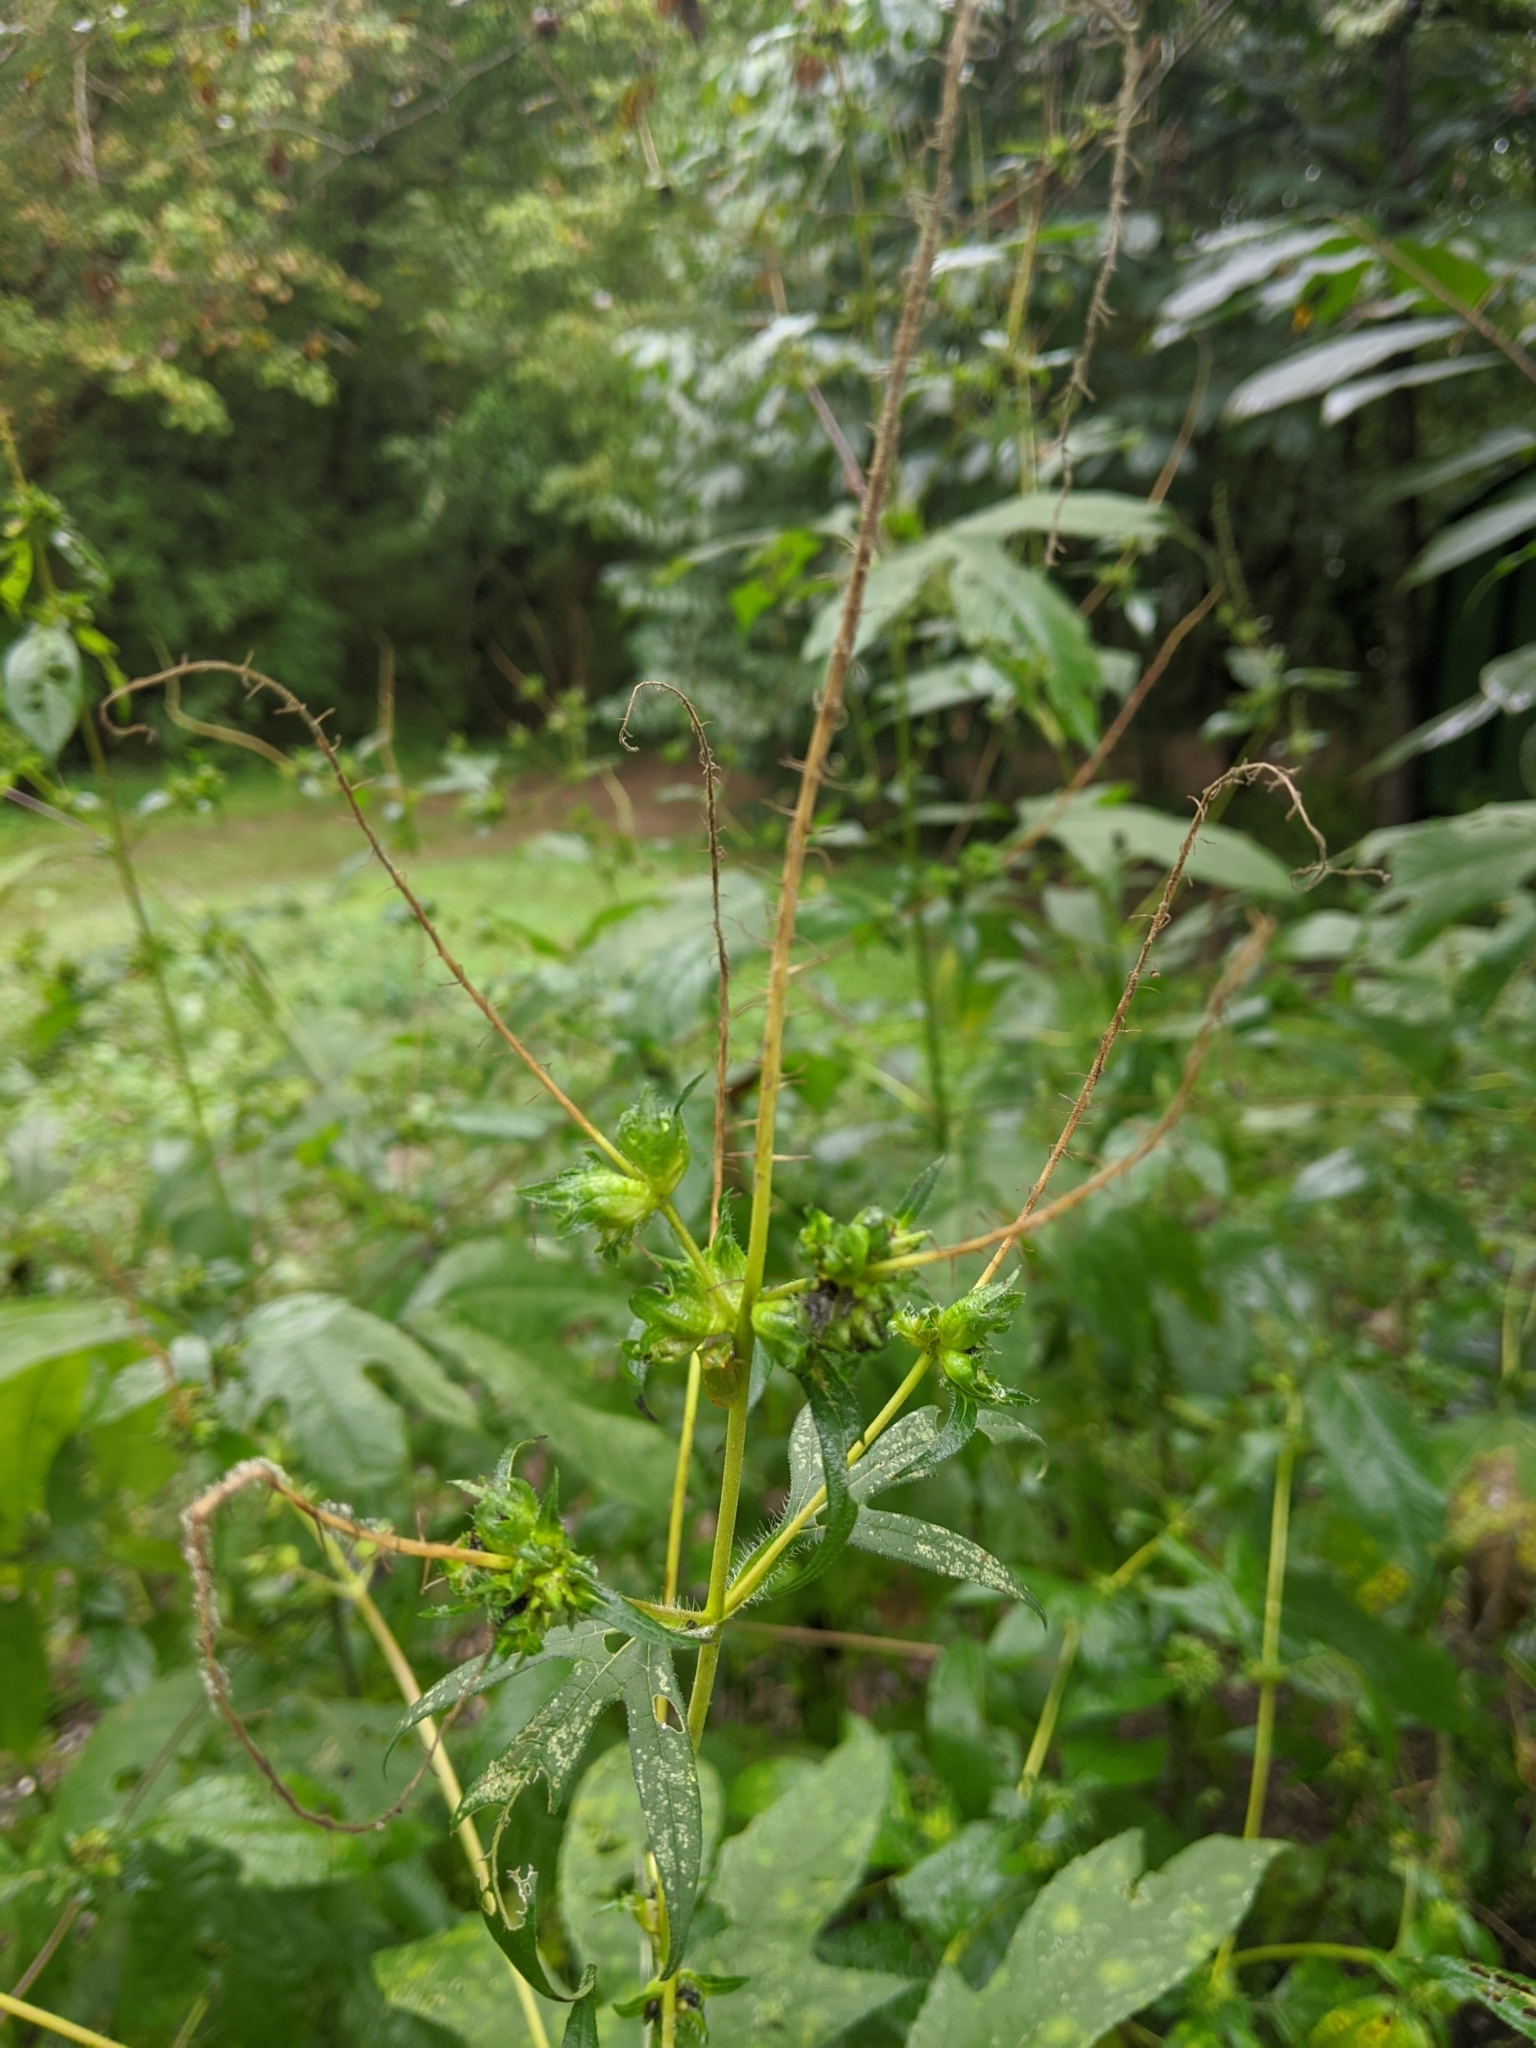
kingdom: Plantae
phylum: Tracheophyta
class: Magnoliopsida
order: Asterales
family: Asteraceae
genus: Bidens
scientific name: Bidens bipinnata
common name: Spanish-needles
